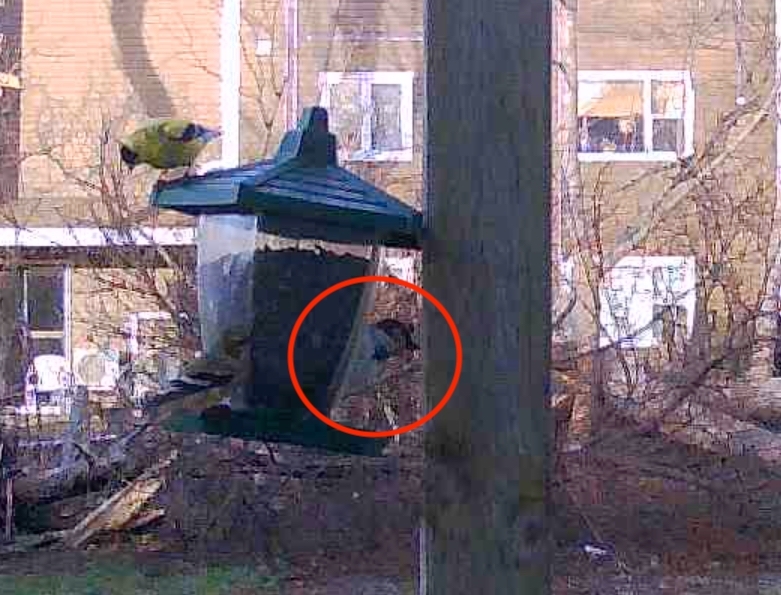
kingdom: Animalia
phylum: Chordata
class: Aves
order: Passeriformes
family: Passeridae
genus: Passer
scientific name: Passer domesticus
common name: House sparrow
